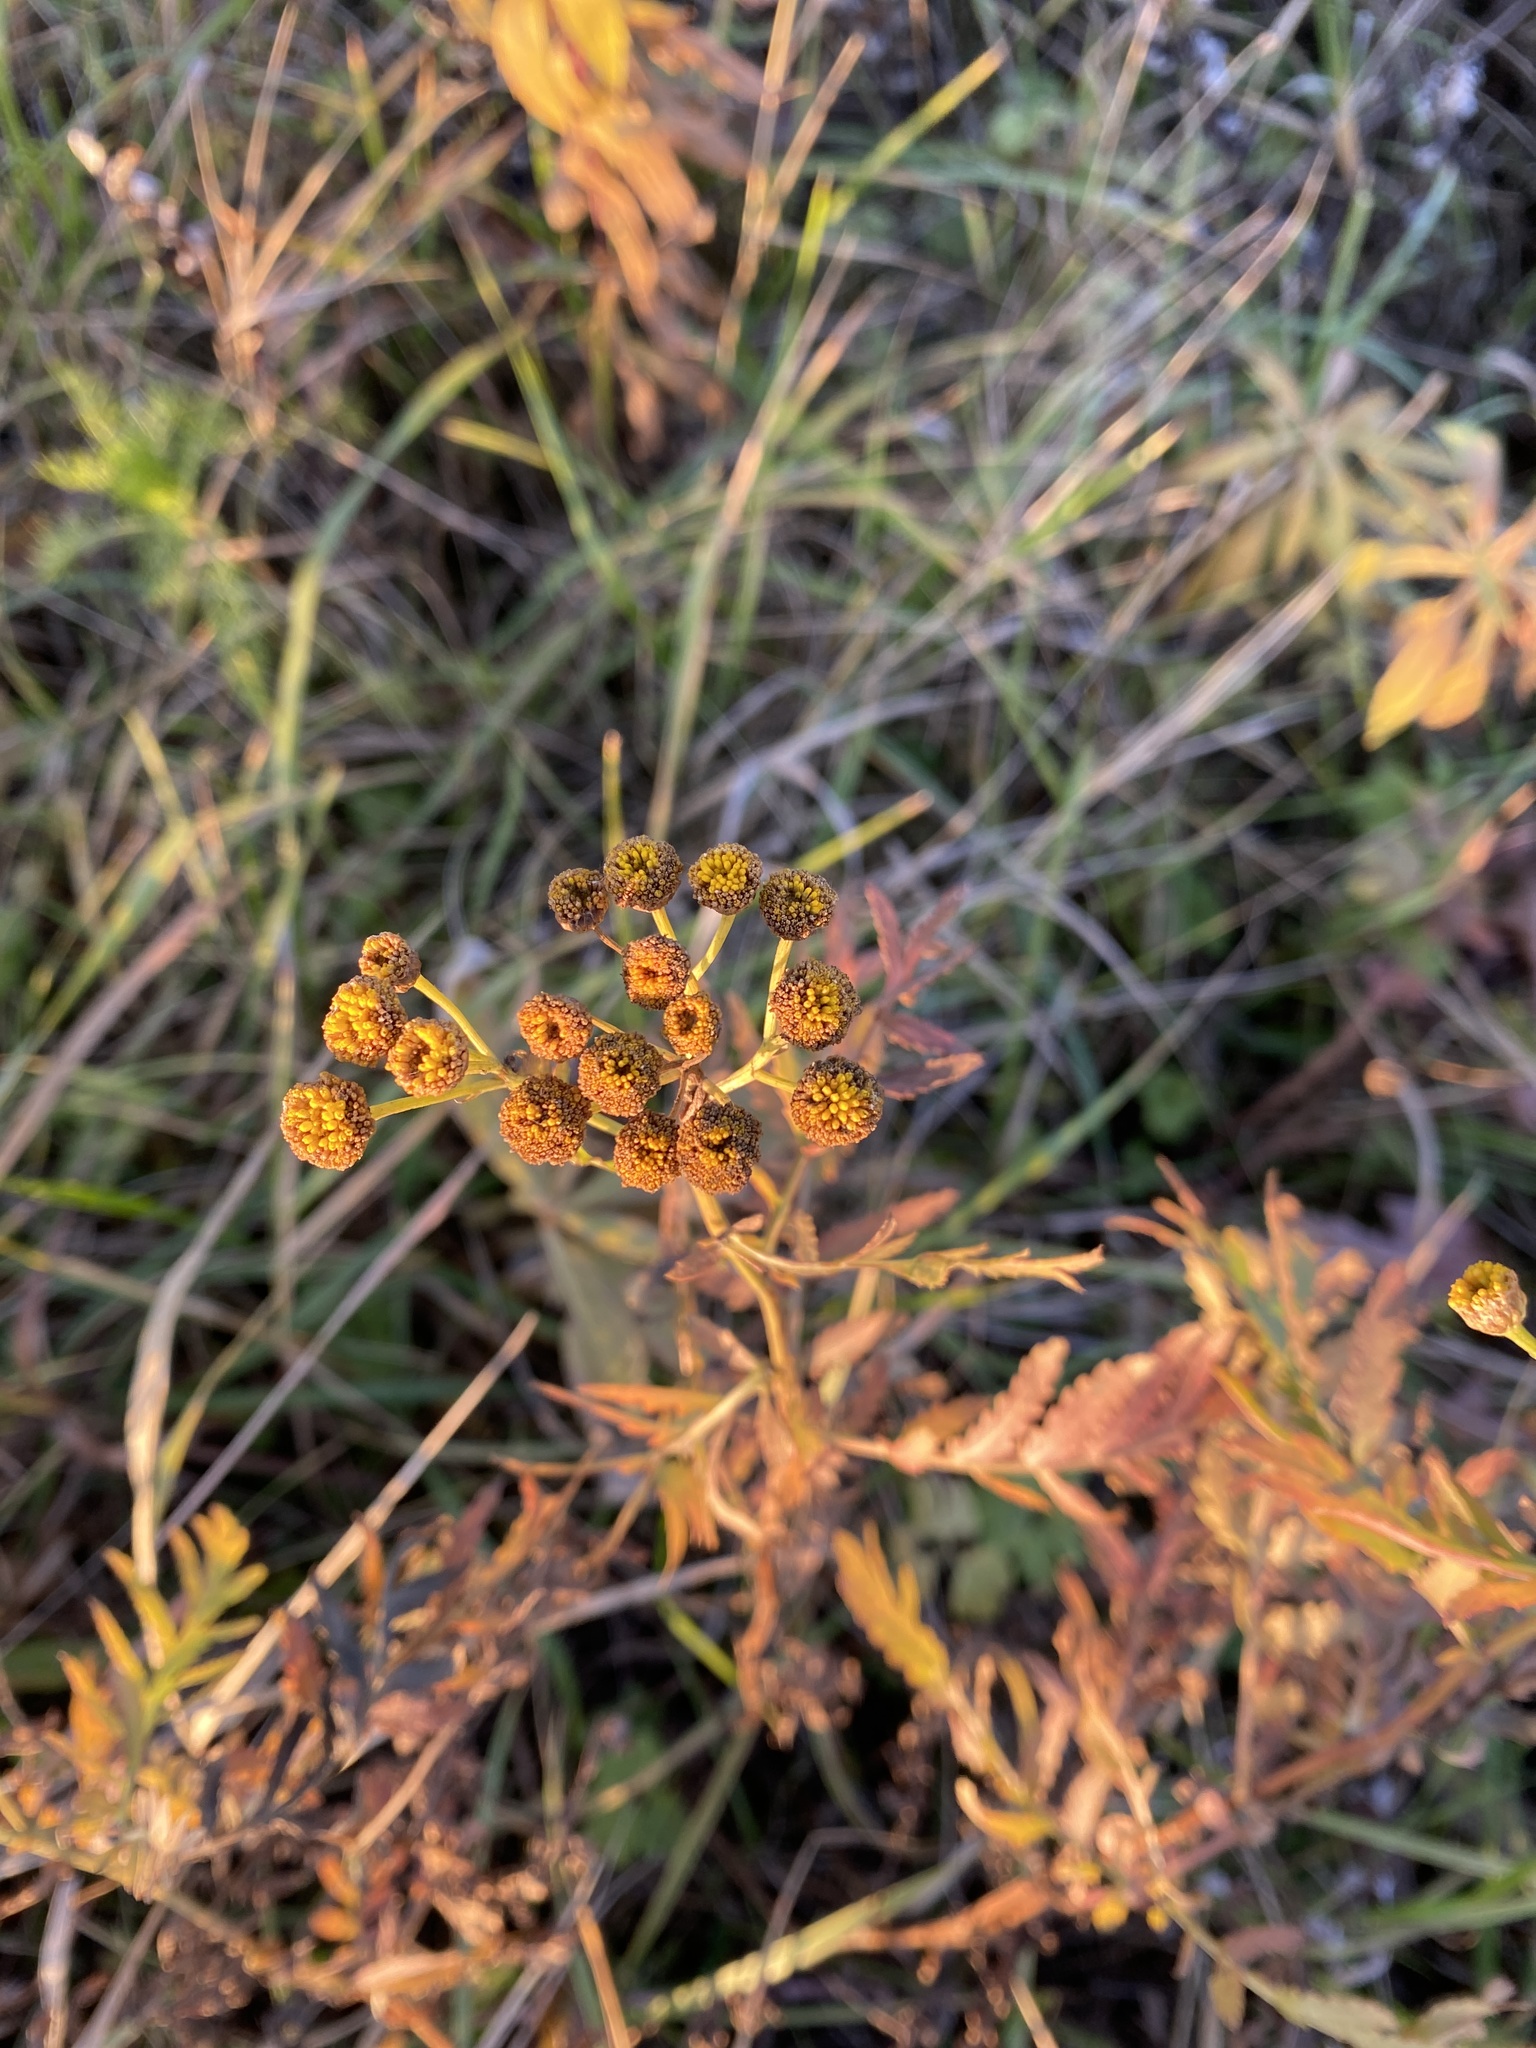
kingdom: Plantae
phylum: Tracheophyta
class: Magnoliopsida
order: Asterales
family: Asteraceae
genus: Tanacetum
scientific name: Tanacetum vulgare
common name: Common tansy
